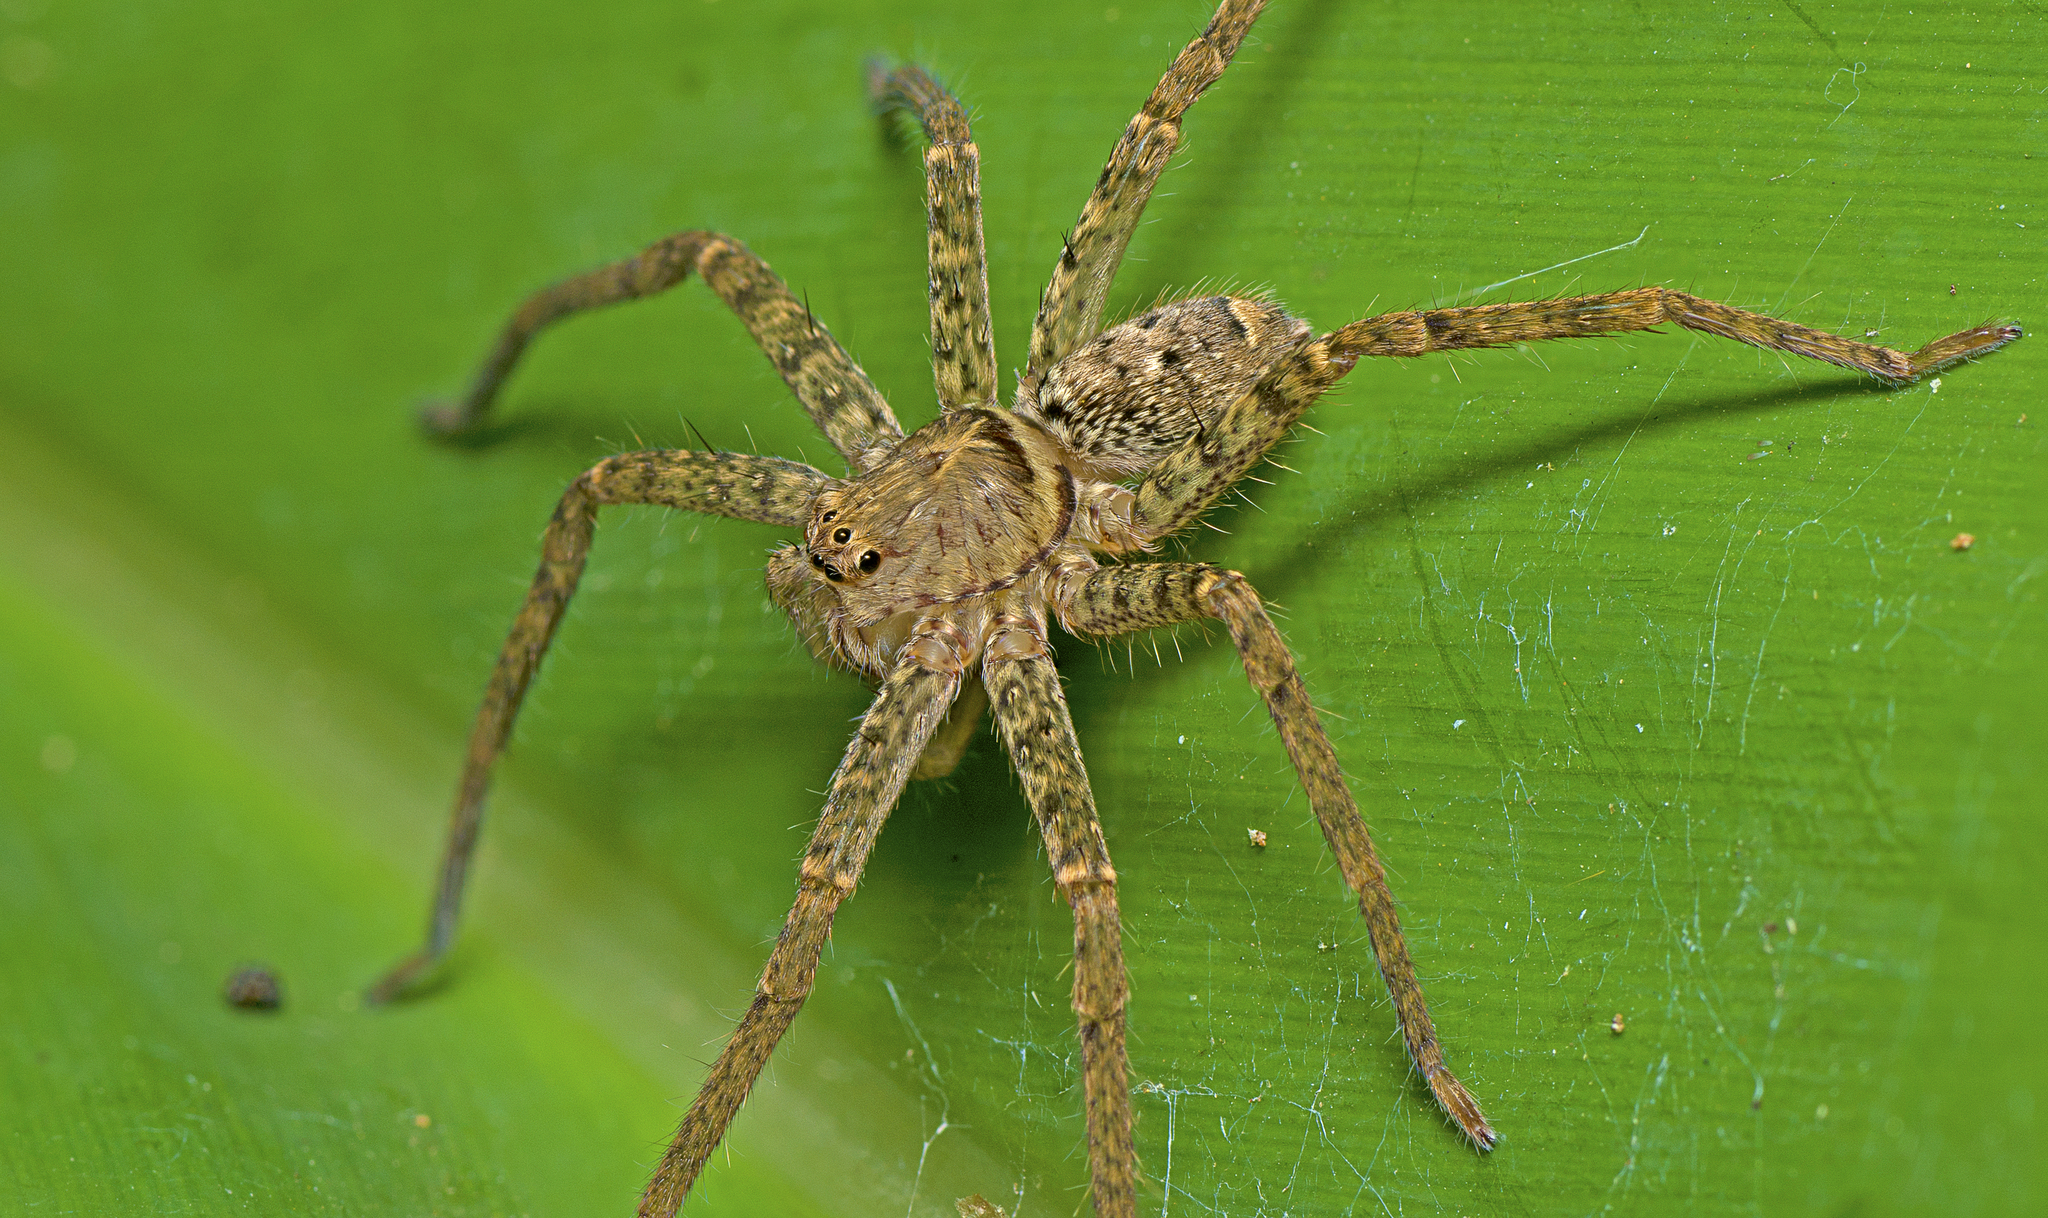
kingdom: Animalia
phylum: Arthropoda
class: Arachnida
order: Araneae
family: Sparassidae
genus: Heteropoda
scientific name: Heteropoda jugulans
